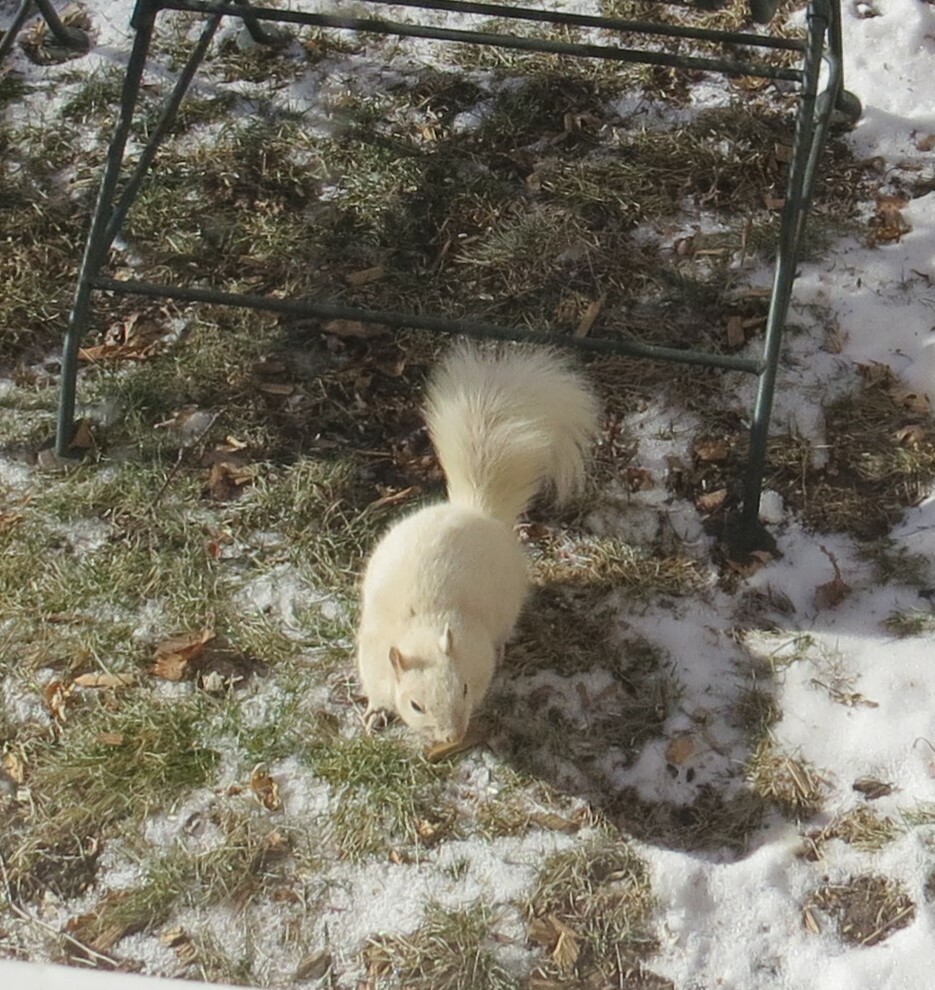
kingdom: Animalia
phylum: Chordata
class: Mammalia
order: Rodentia
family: Sciuridae
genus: Sciurus
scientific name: Sciurus carolinensis
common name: Eastern gray squirrel
